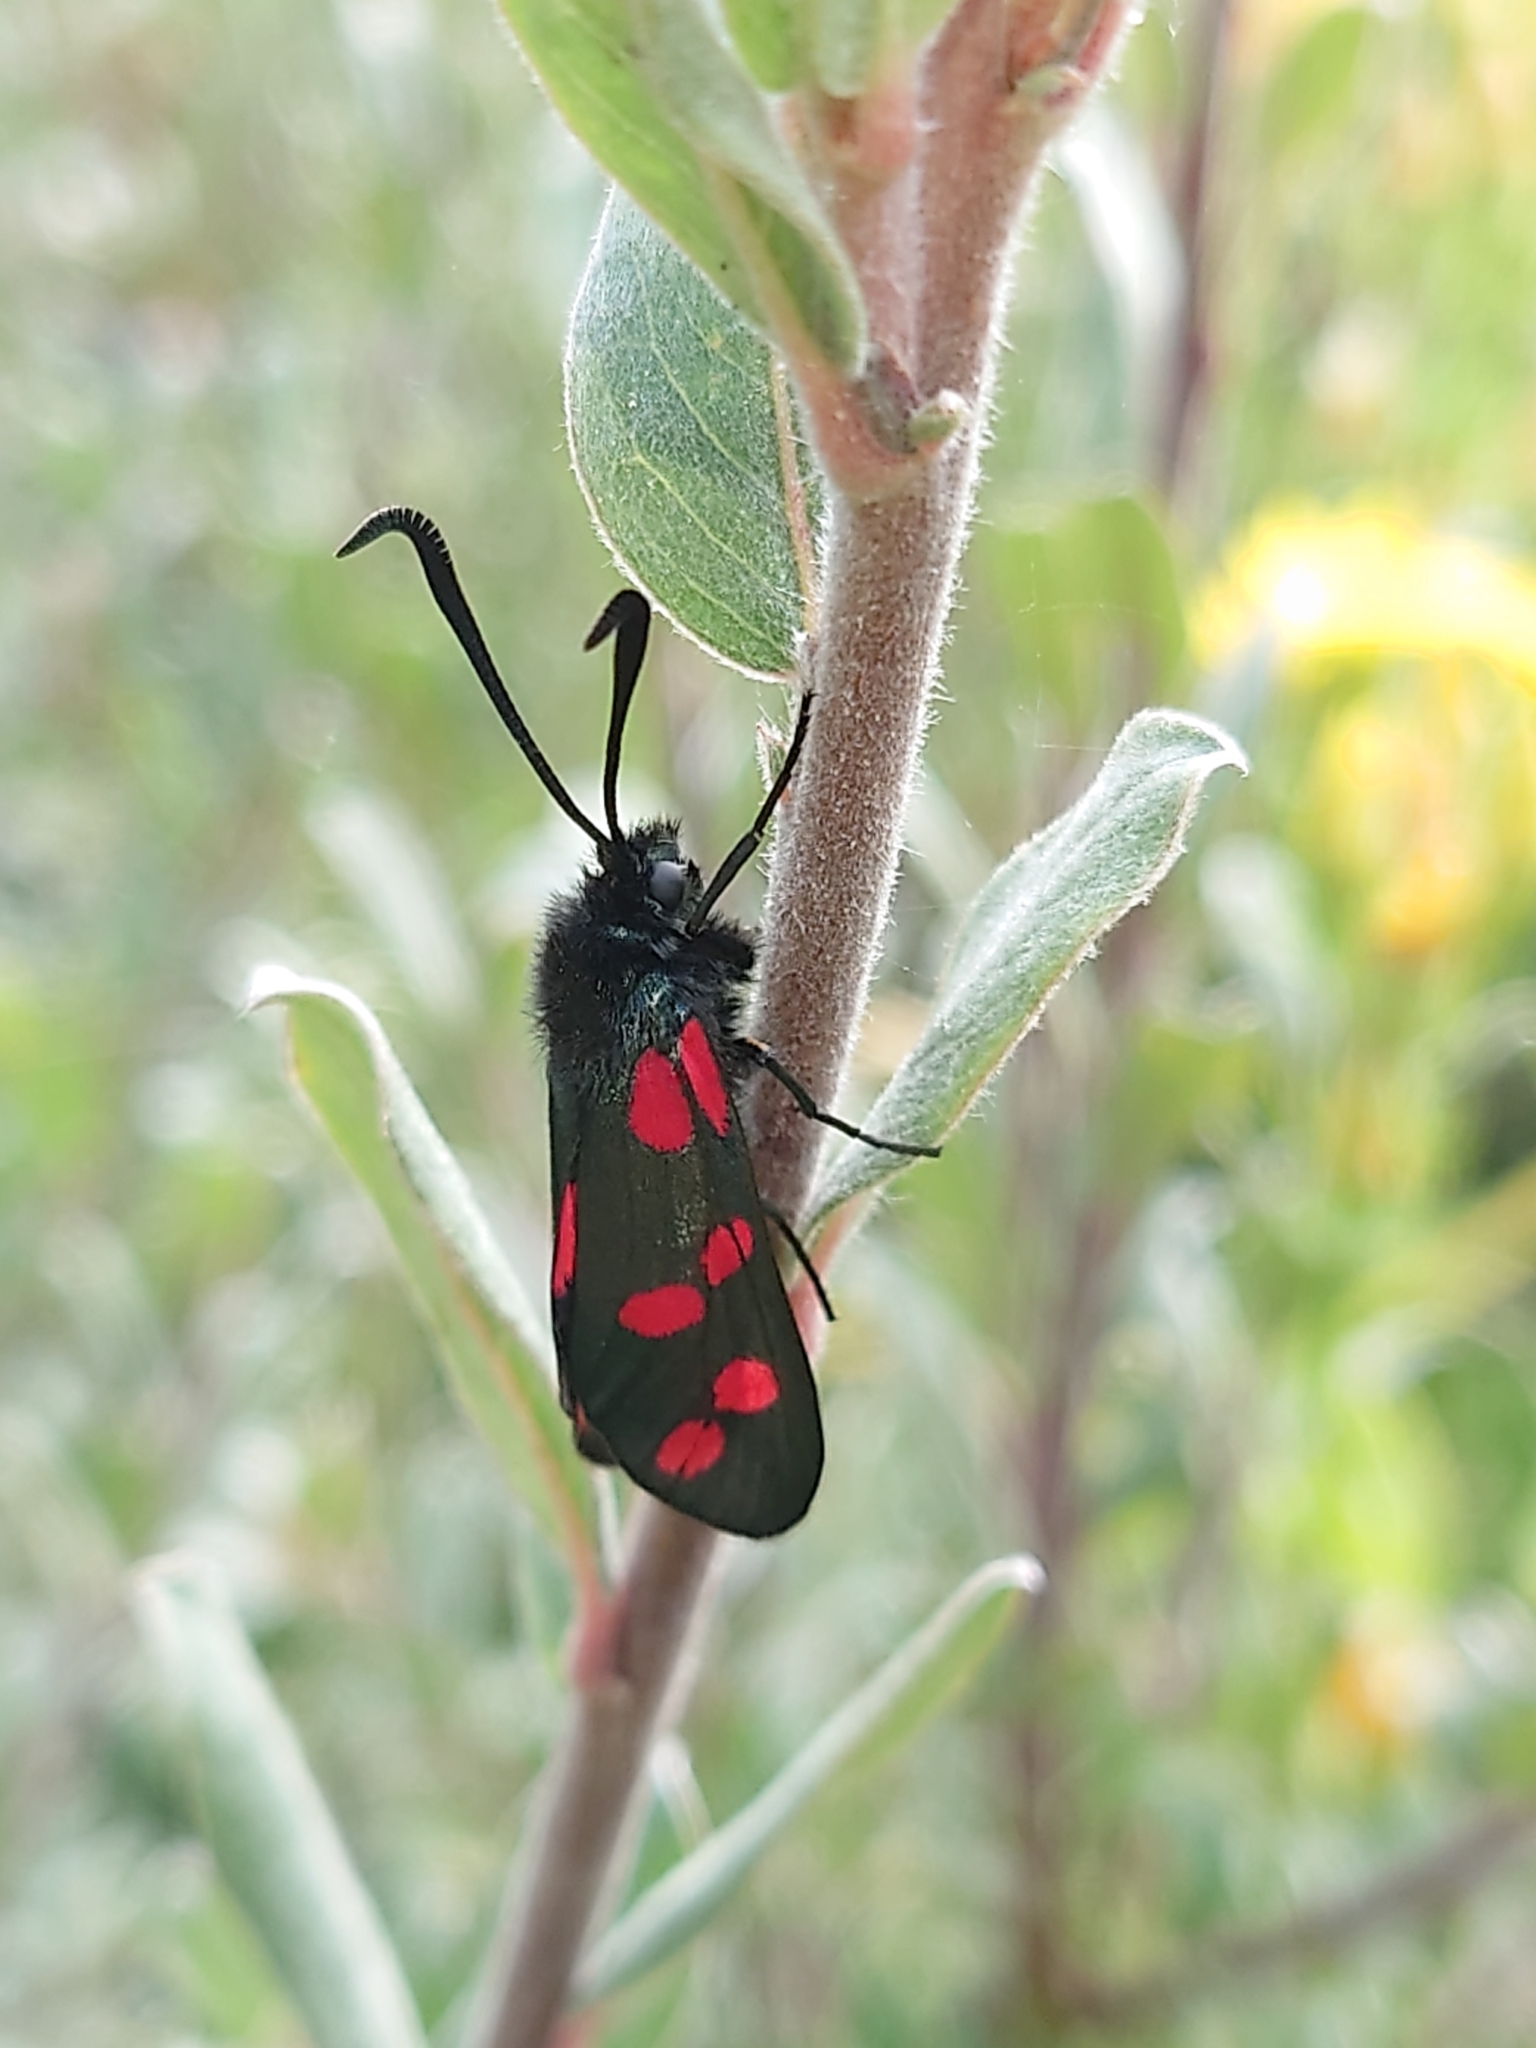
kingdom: Animalia
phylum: Arthropoda
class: Insecta
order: Lepidoptera
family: Zygaenidae
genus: Zygaena
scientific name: Zygaena filipendulae
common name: Six-spot burnet
